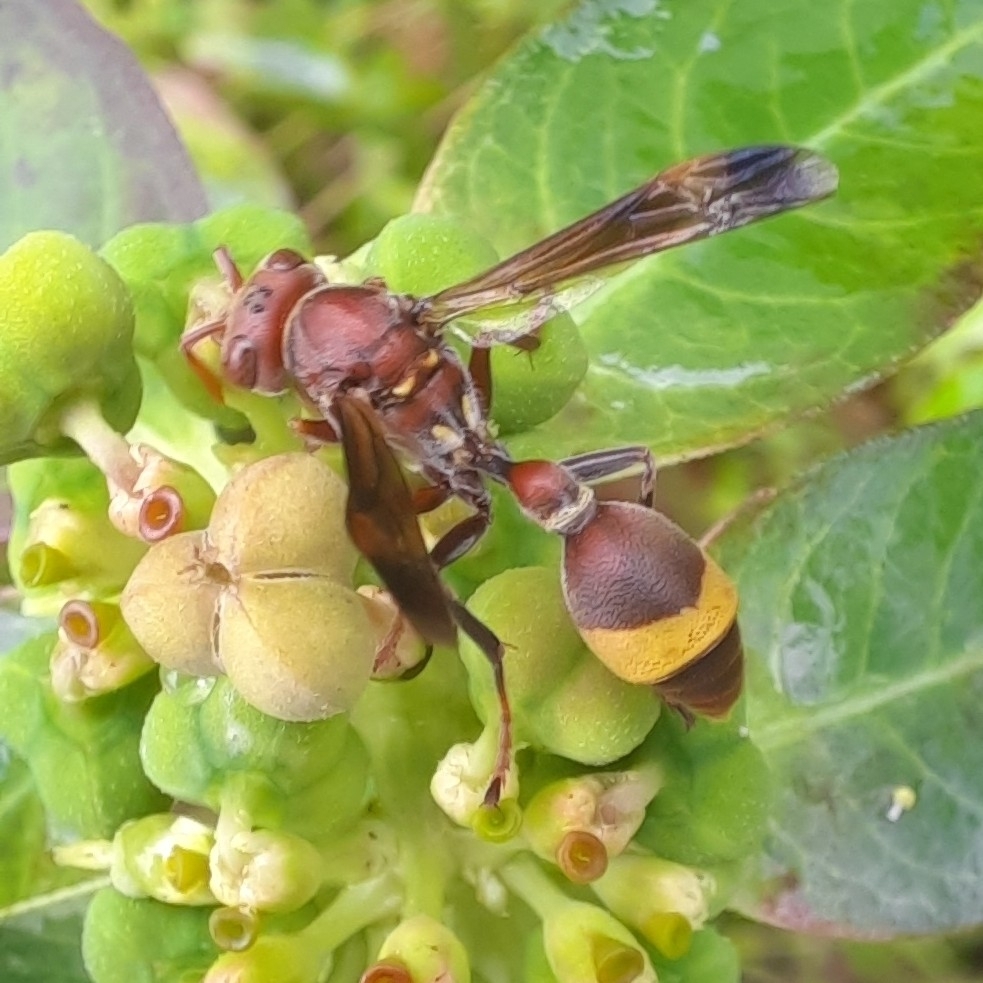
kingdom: Animalia
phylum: Arthropoda
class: Insecta
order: Hymenoptera
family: Vespidae
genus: Ropalidia
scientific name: Ropalidia
